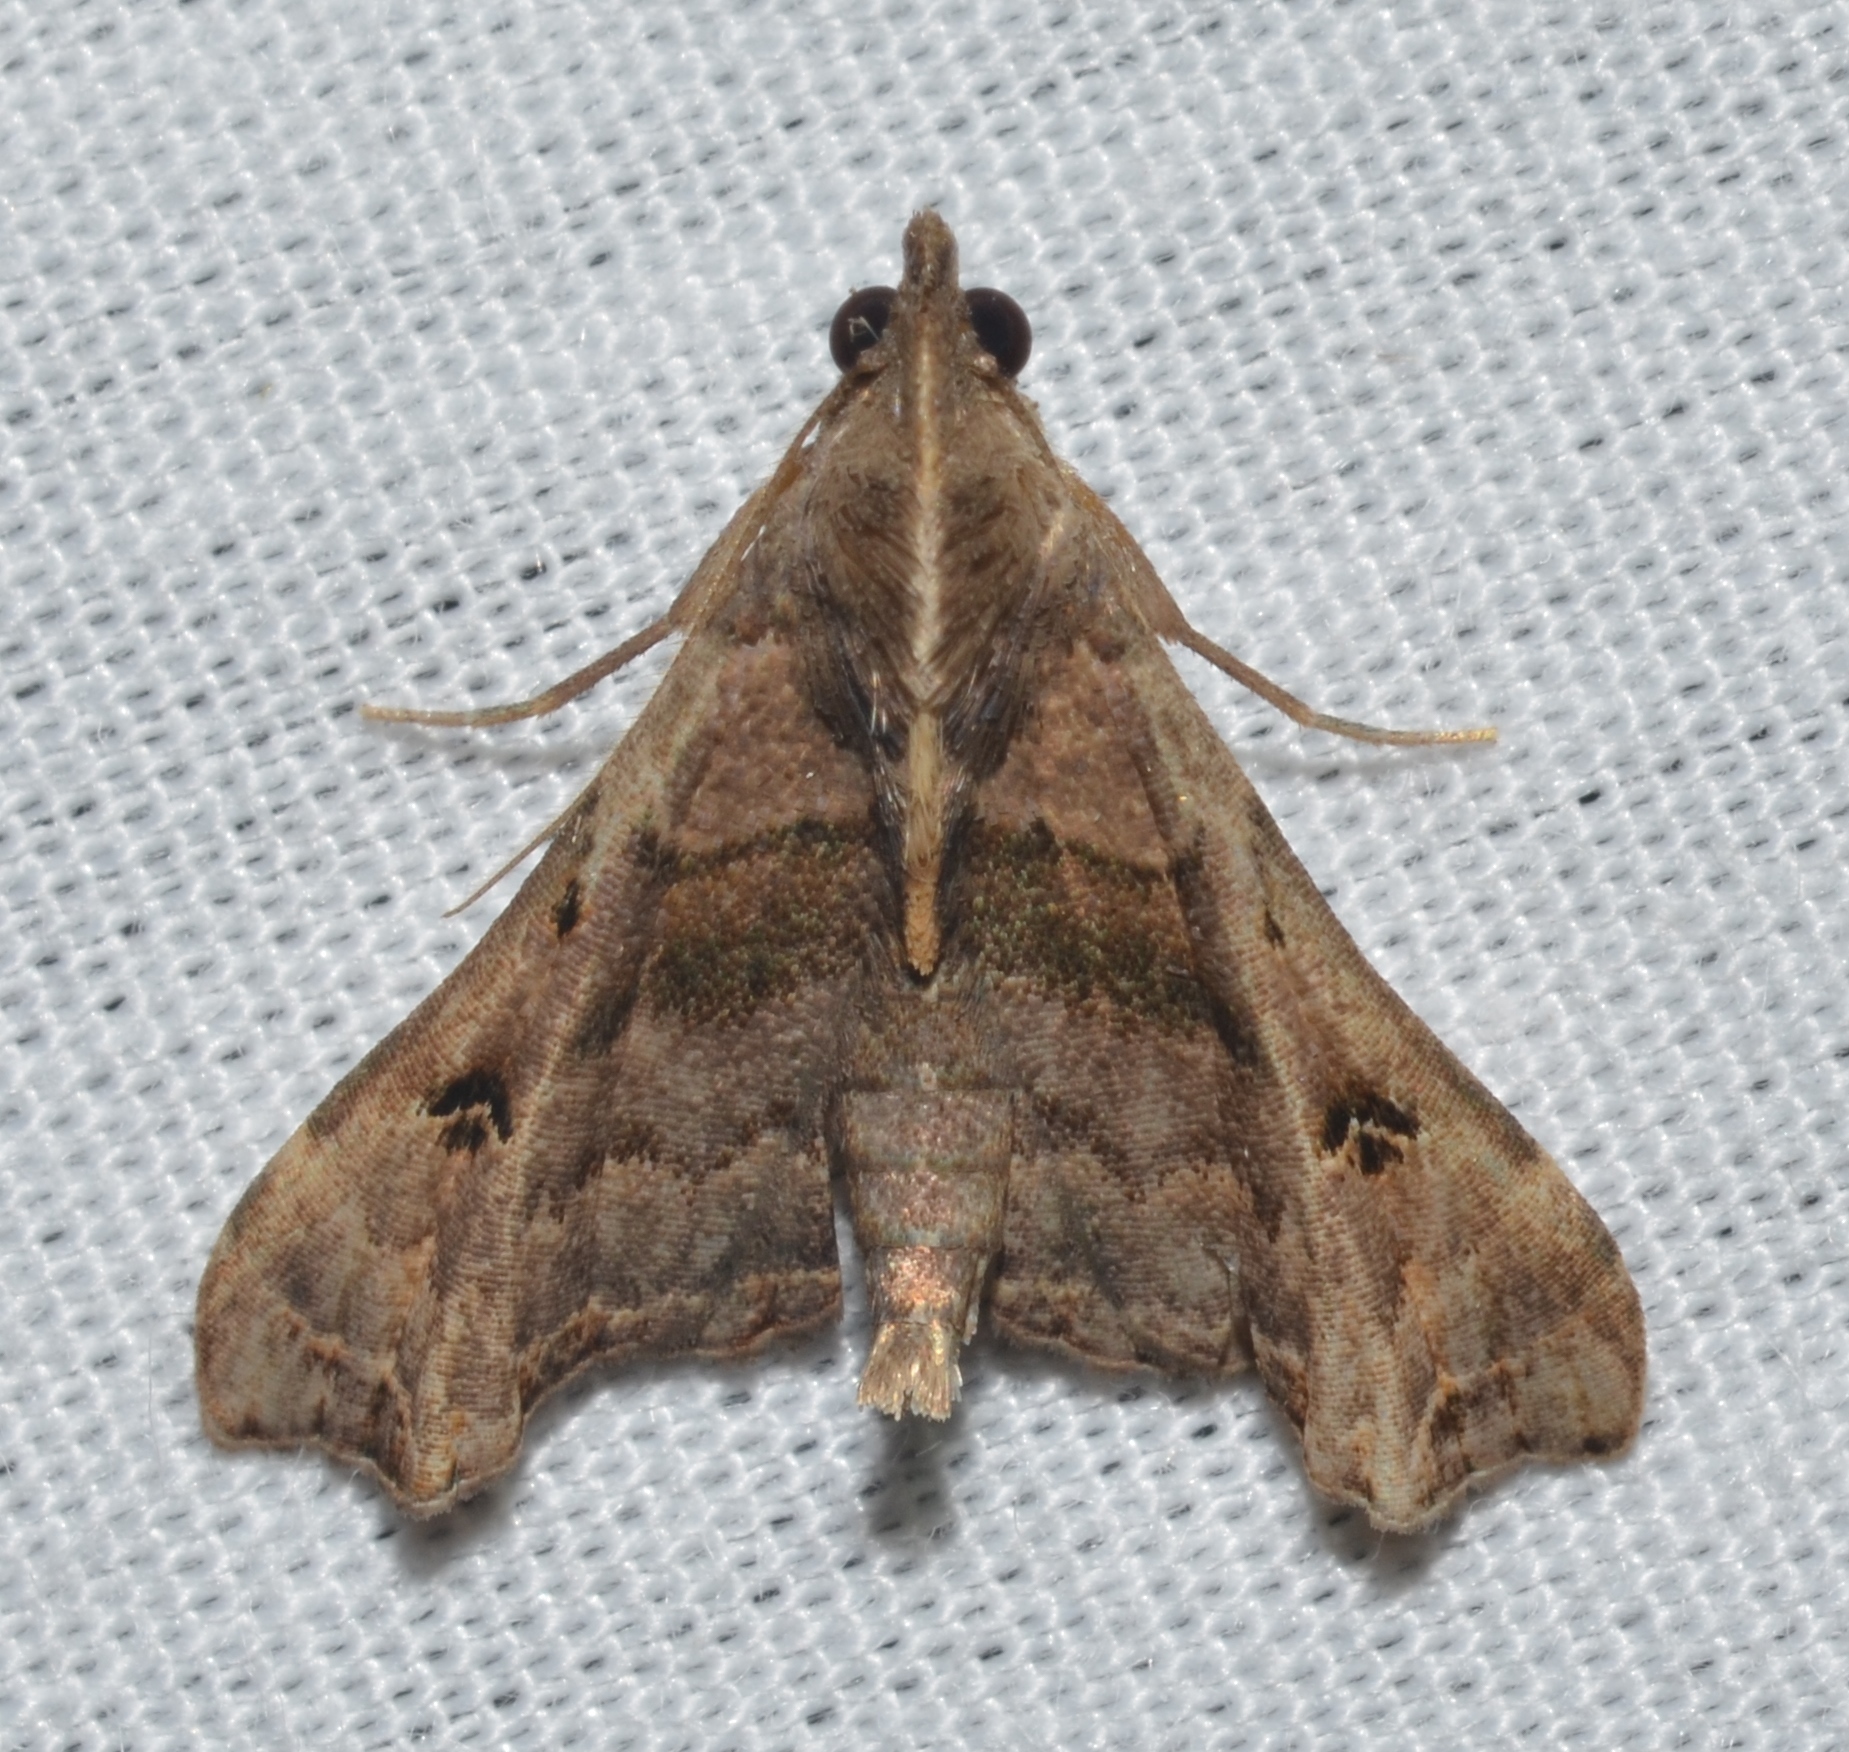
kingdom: Animalia
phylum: Arthropoda
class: Insecta
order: Lepidoptera
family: Erebidae
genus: Palthis
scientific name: Palthis asopialis
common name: Faint-spotted palthis moth
